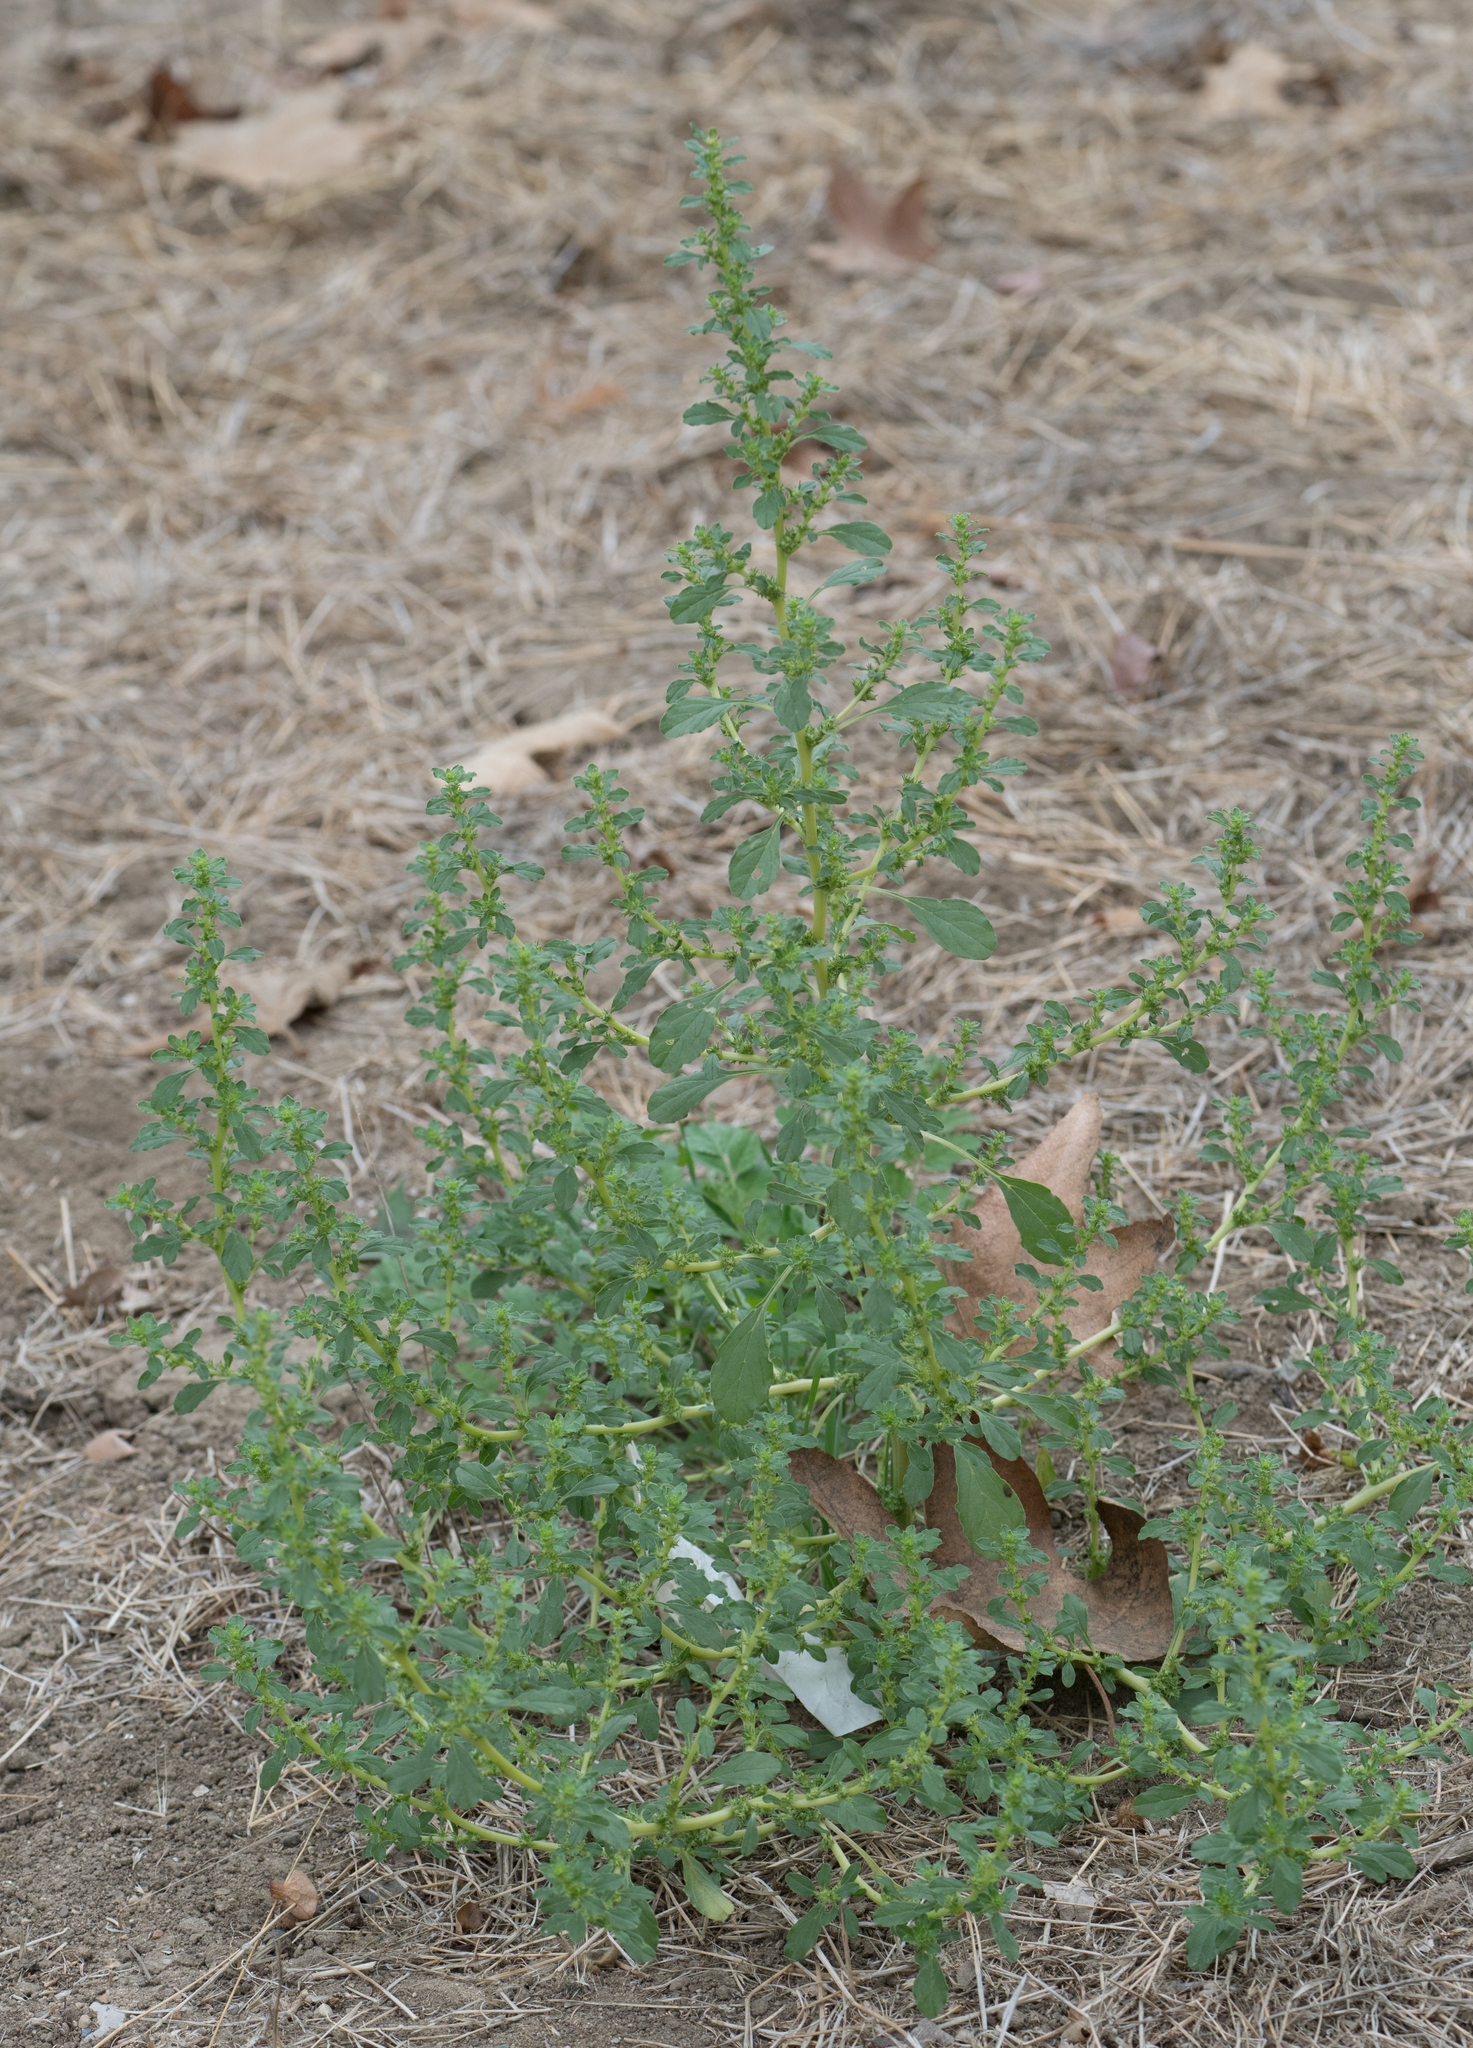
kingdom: Plantae
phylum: Tracheophyta
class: Magnoliopsida
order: Caryophyllales
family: Amaranthaceae
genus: Amaranthus
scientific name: Amaranthus albus
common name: White pigweed
